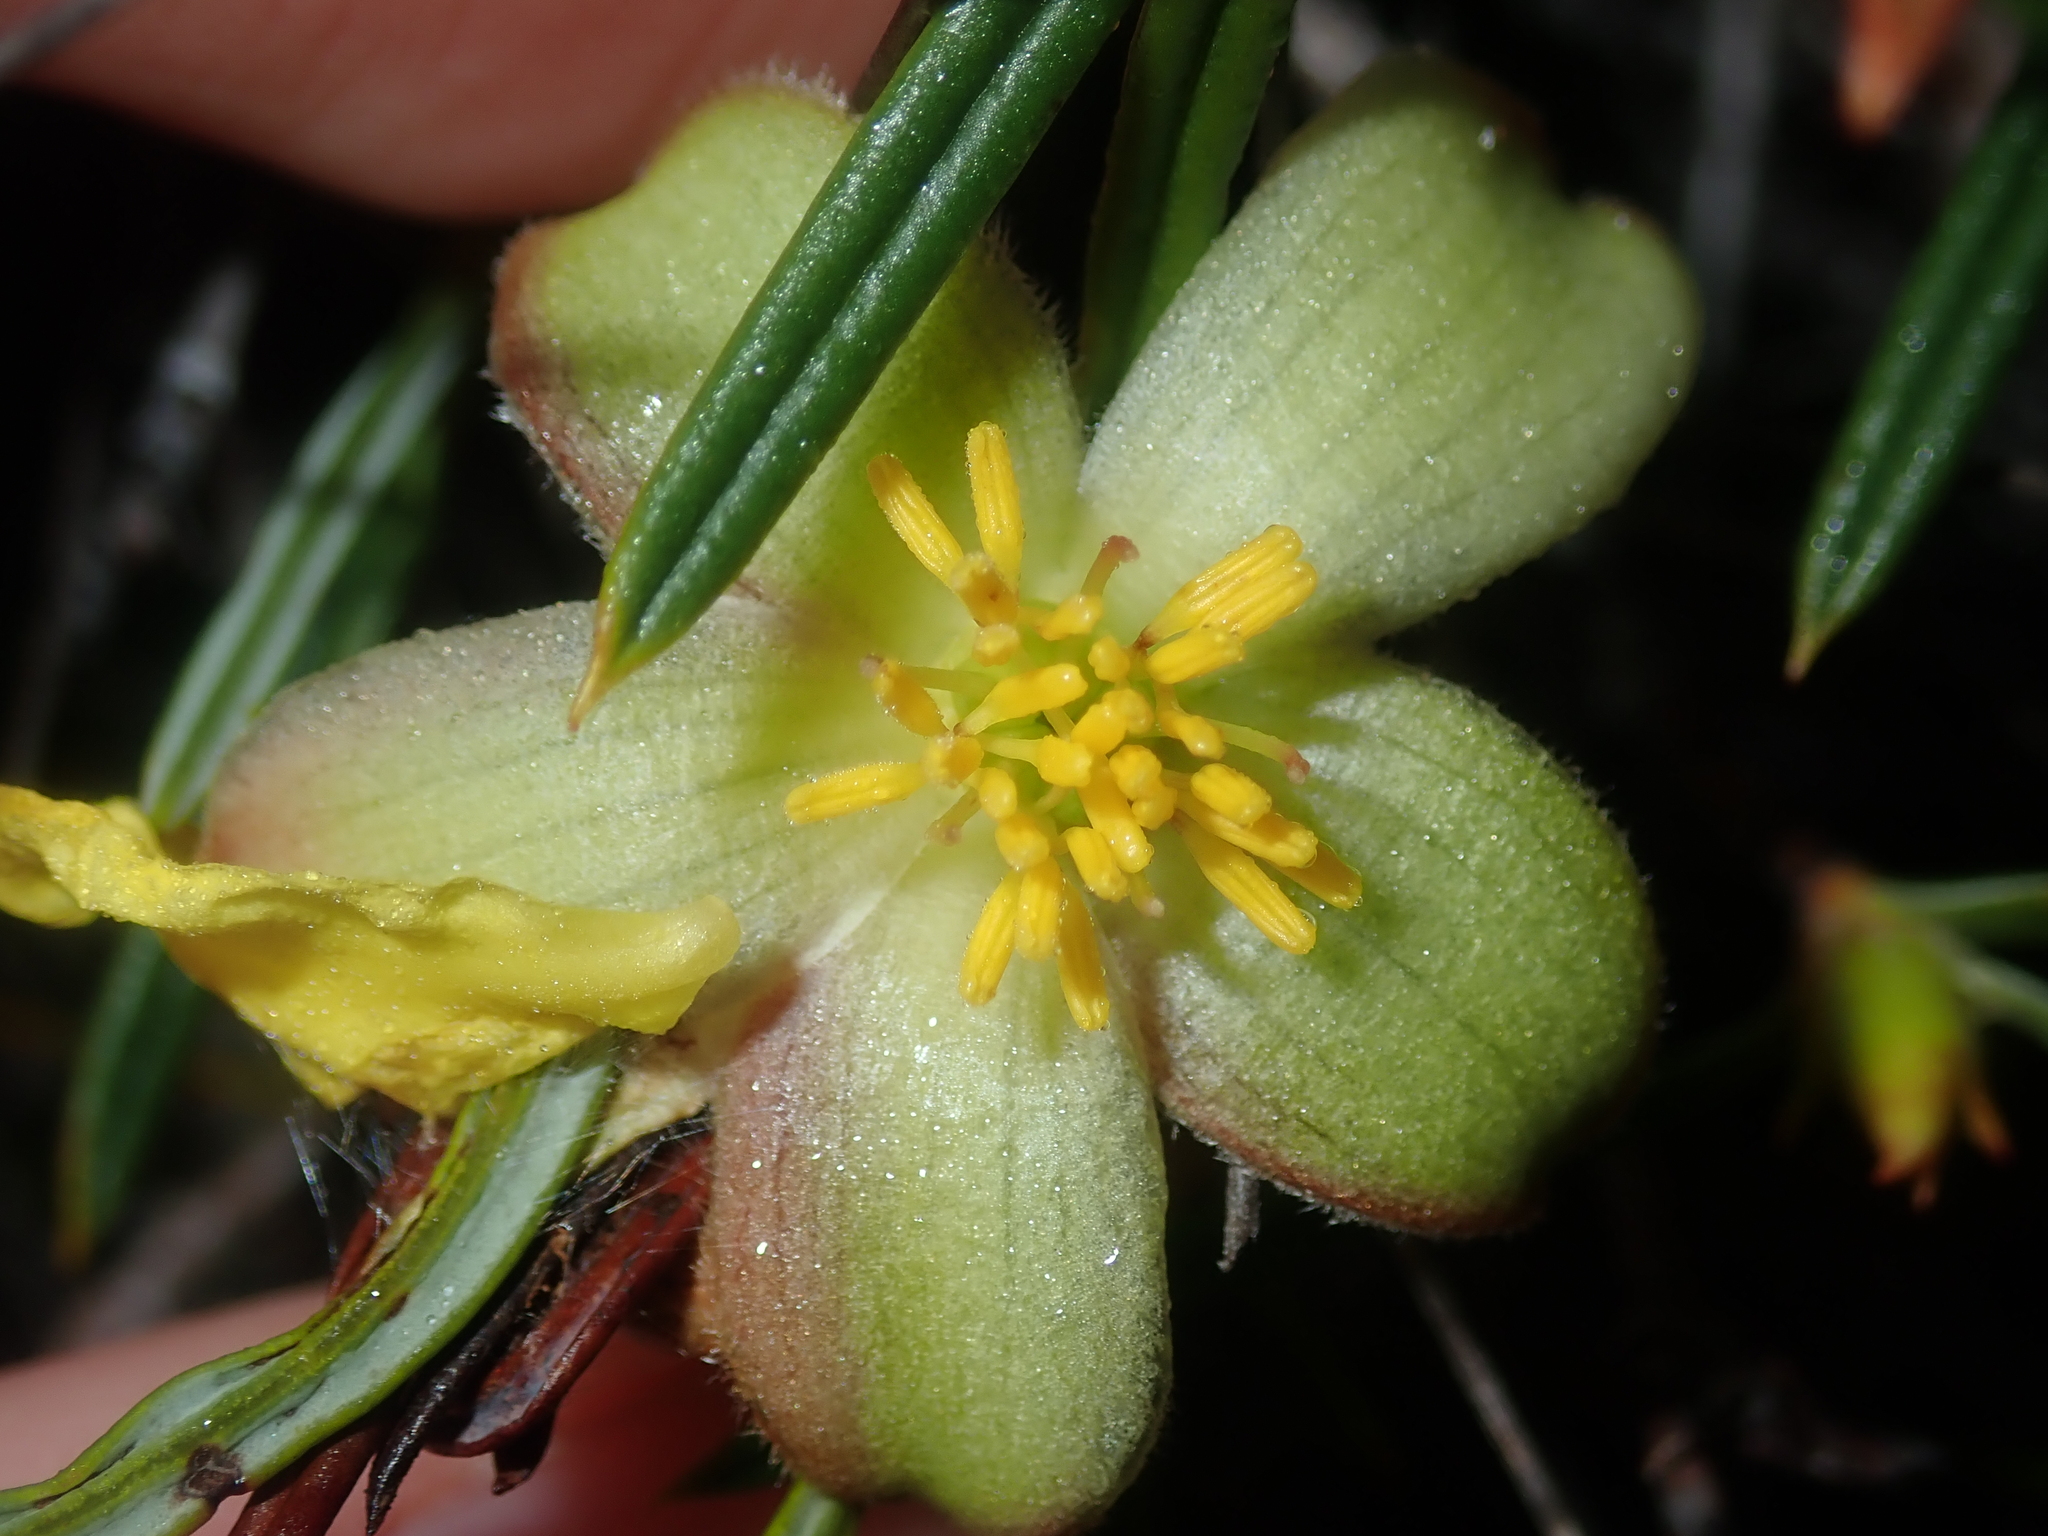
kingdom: Plantae
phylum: Tracheophyta
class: Magnoliopsida
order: Dilleniales
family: Dilleniaceae
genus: Hibbertia
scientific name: Hibbertia striata
